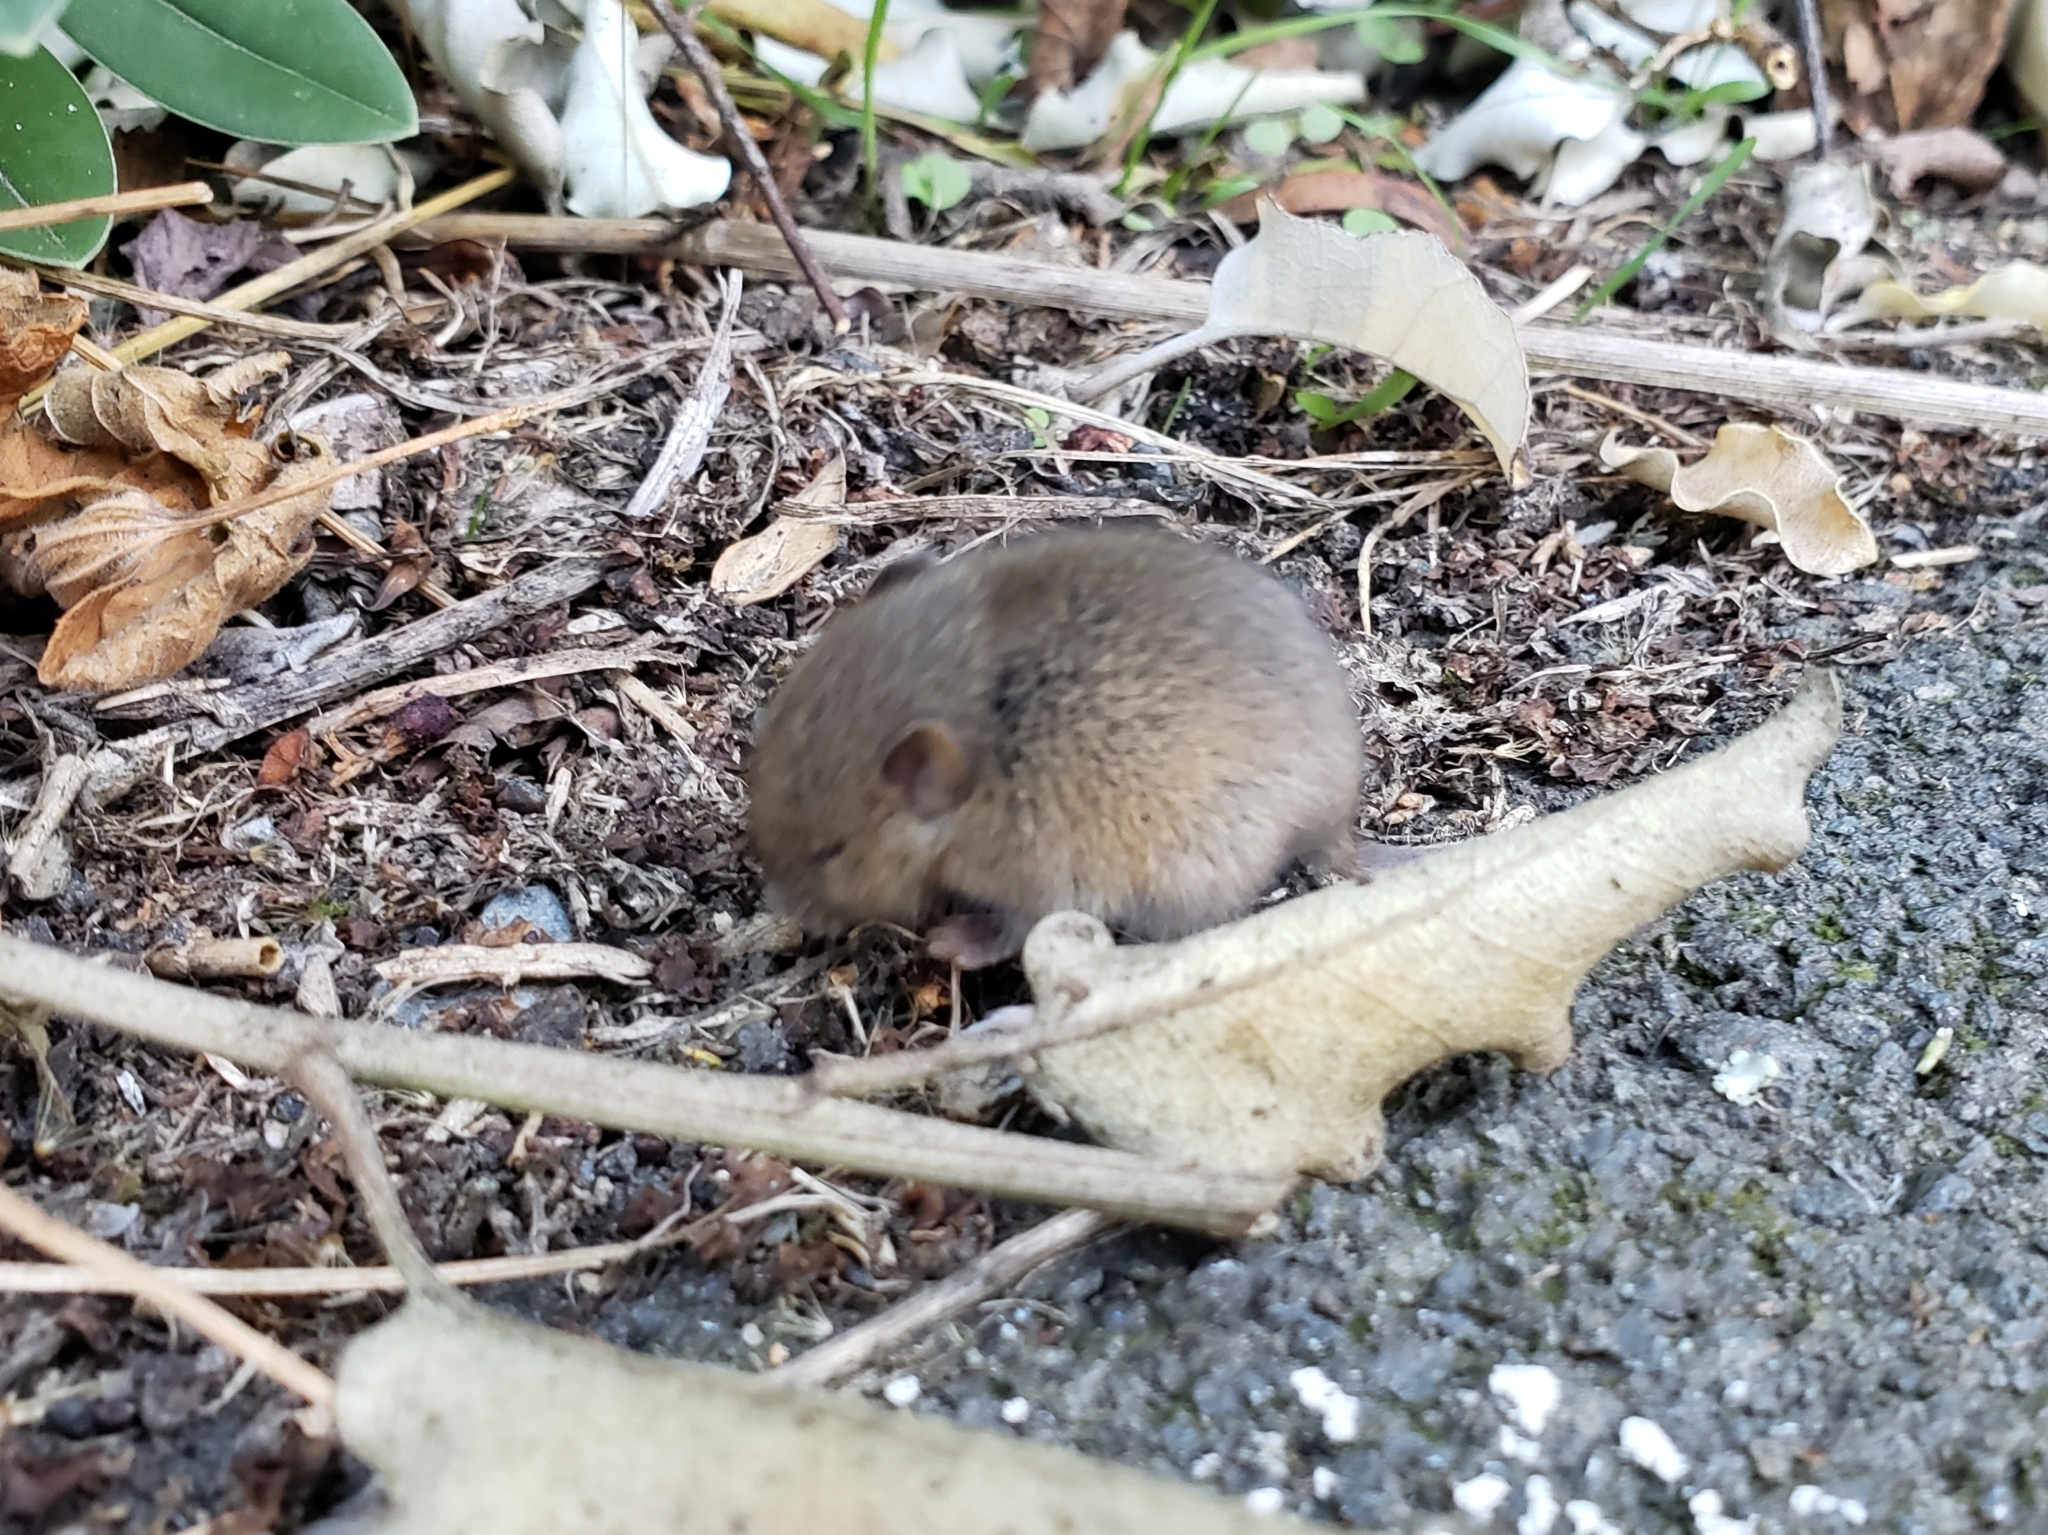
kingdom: Animalia
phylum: Chordata
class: Mammalia
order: Rodentia
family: Muridae
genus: Mus
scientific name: Mus musculus
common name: House mouse
